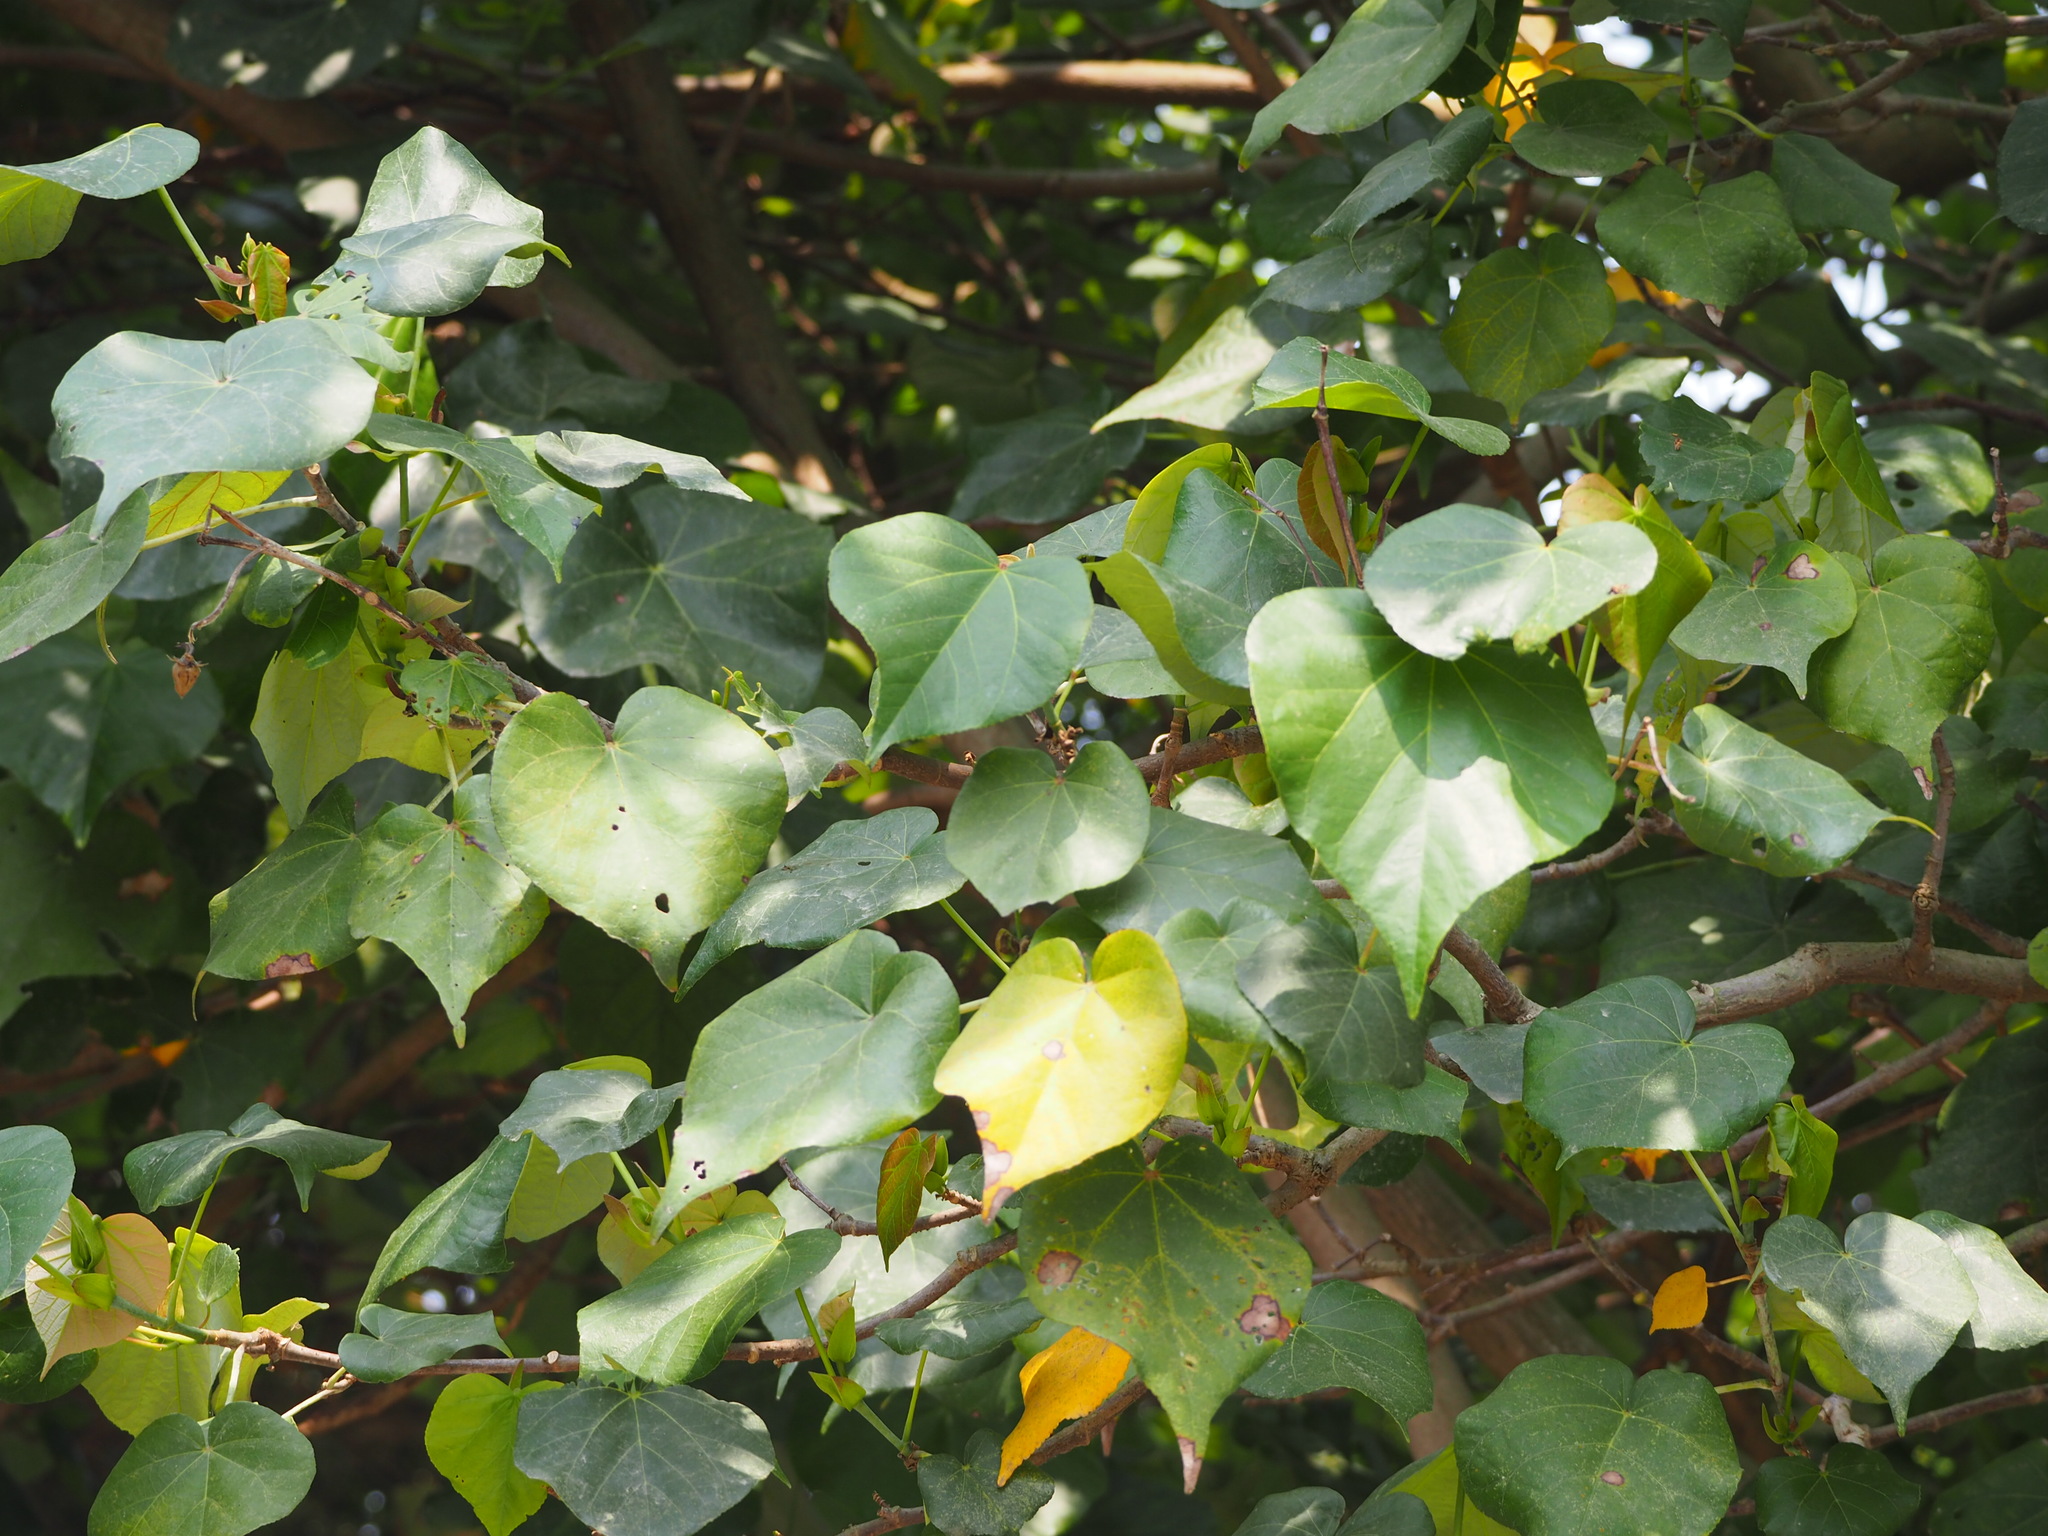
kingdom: Plantae
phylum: Tracheophyta
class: Magnoliopsida
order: Malvales
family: Malvaceae
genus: Talipariti
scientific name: Talipariti tiliaceum
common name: Sea hibiscus
